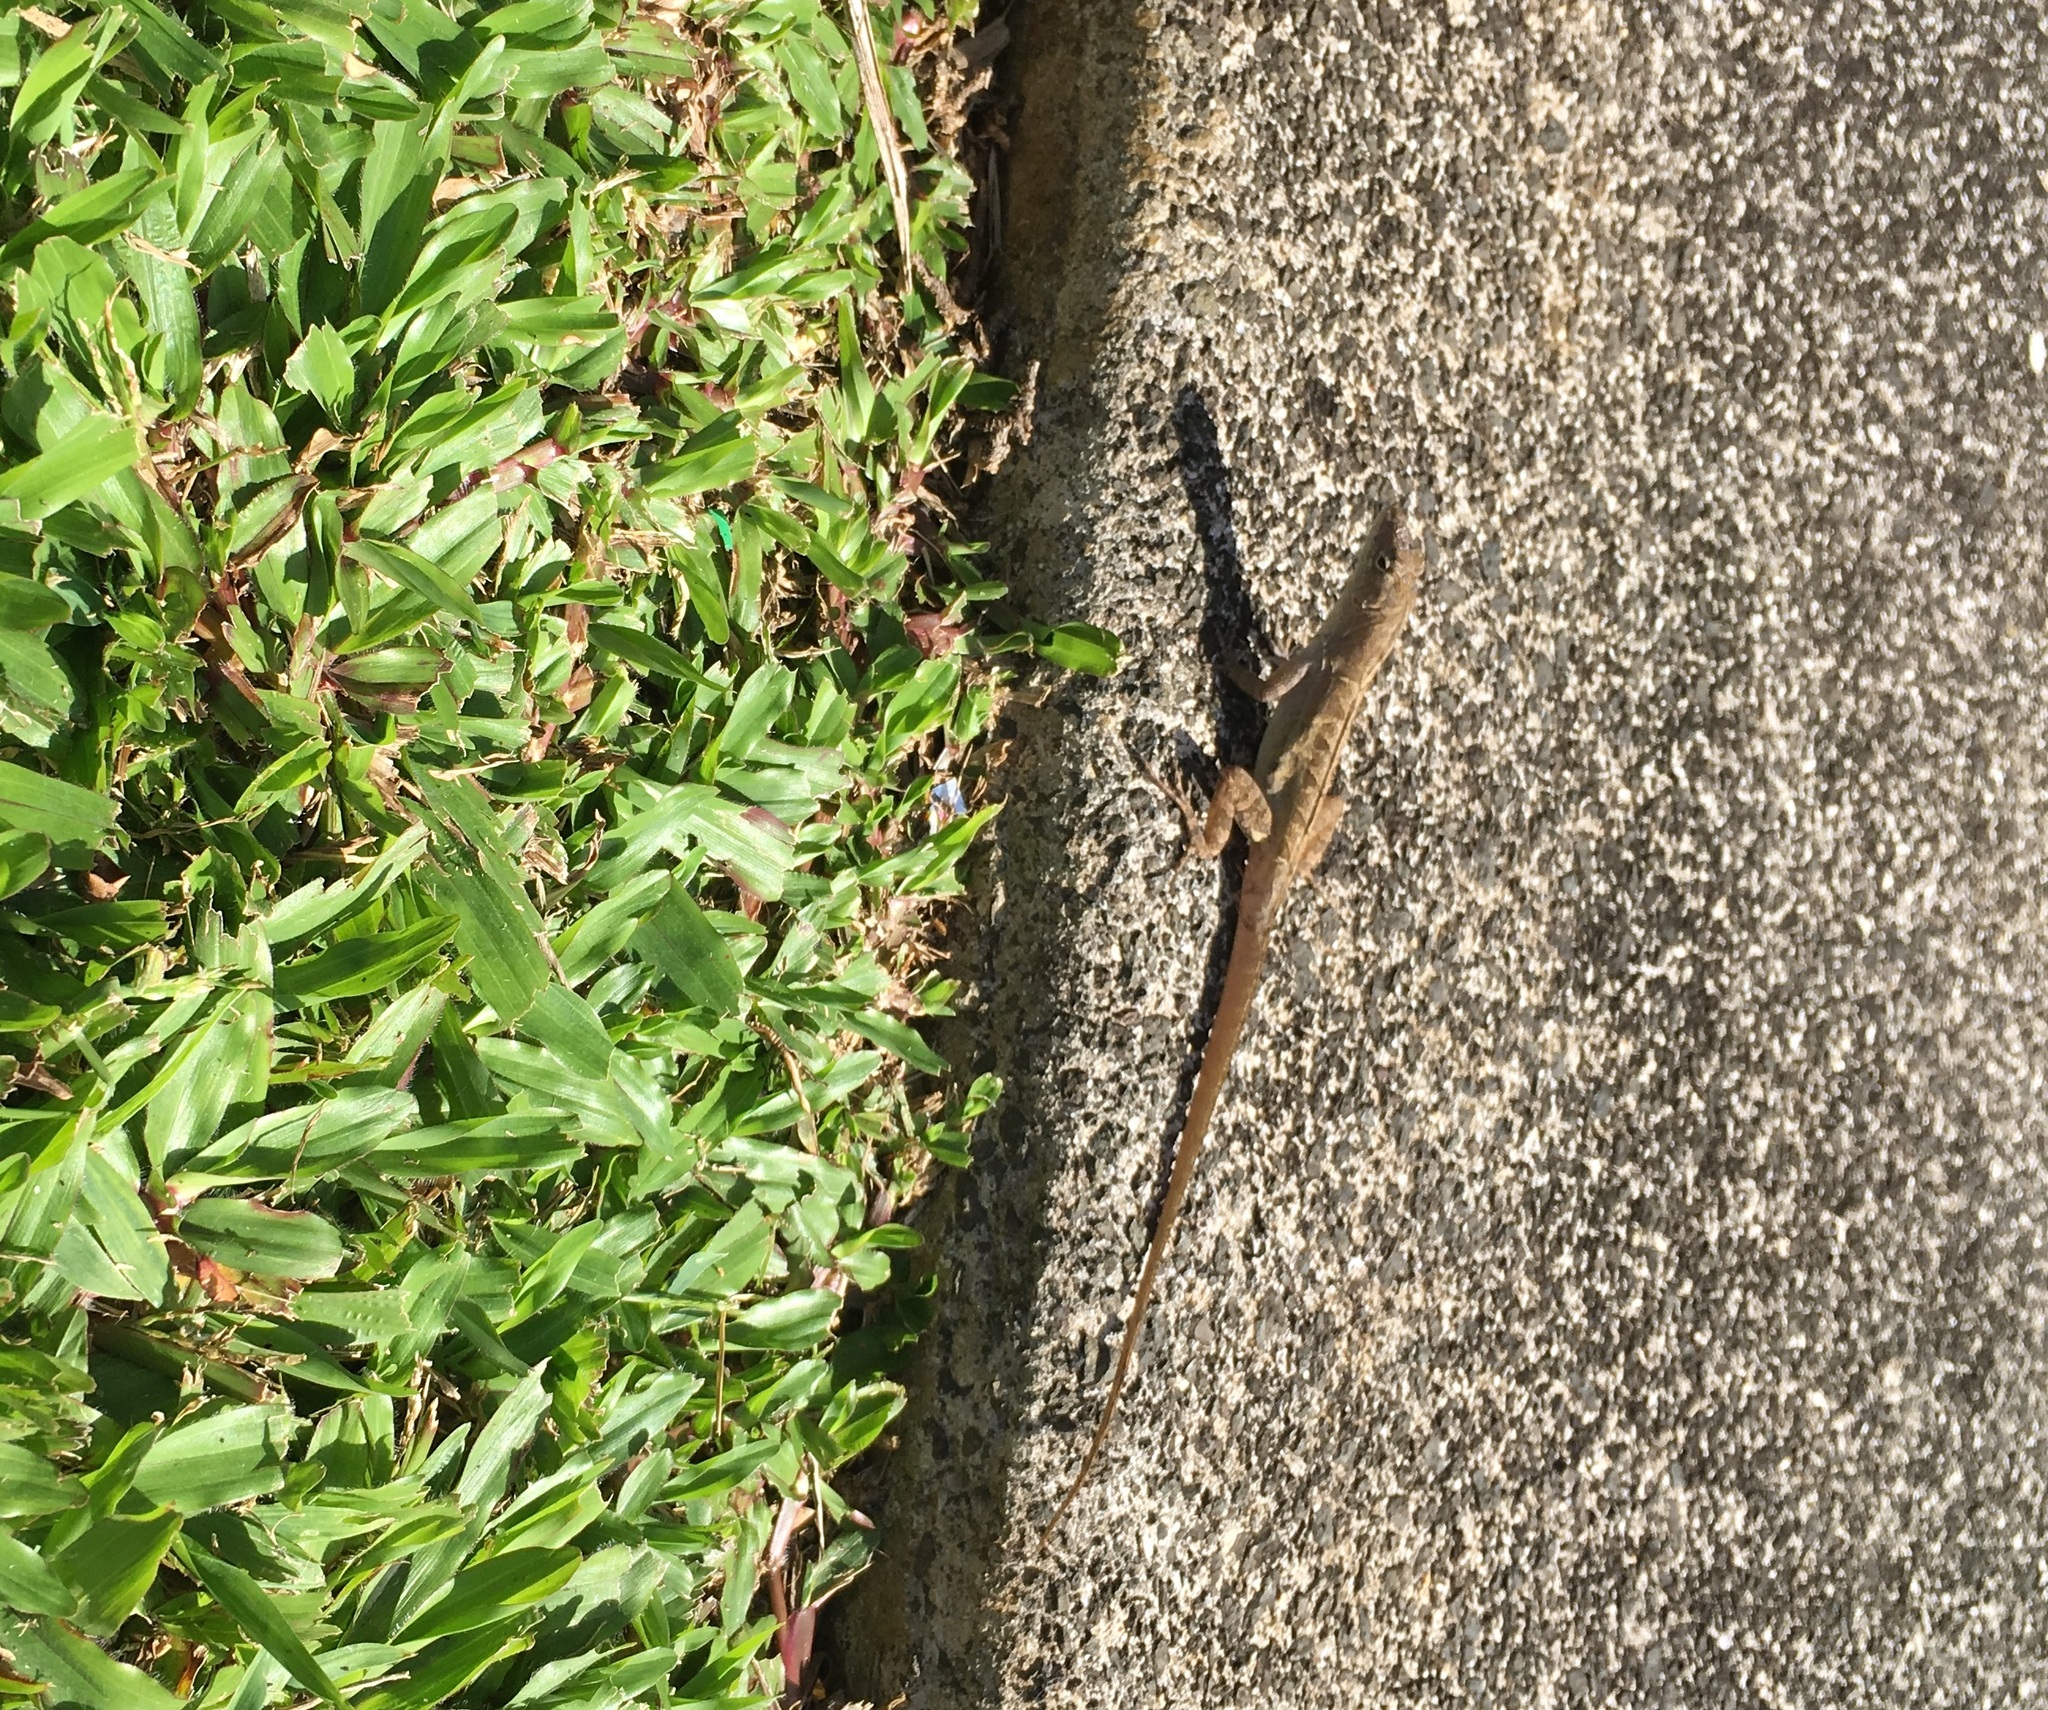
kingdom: Animalia
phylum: Chordata
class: Squamata
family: Dactyloidae
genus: Anolis
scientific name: Anolis sagrei
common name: Brown anole
